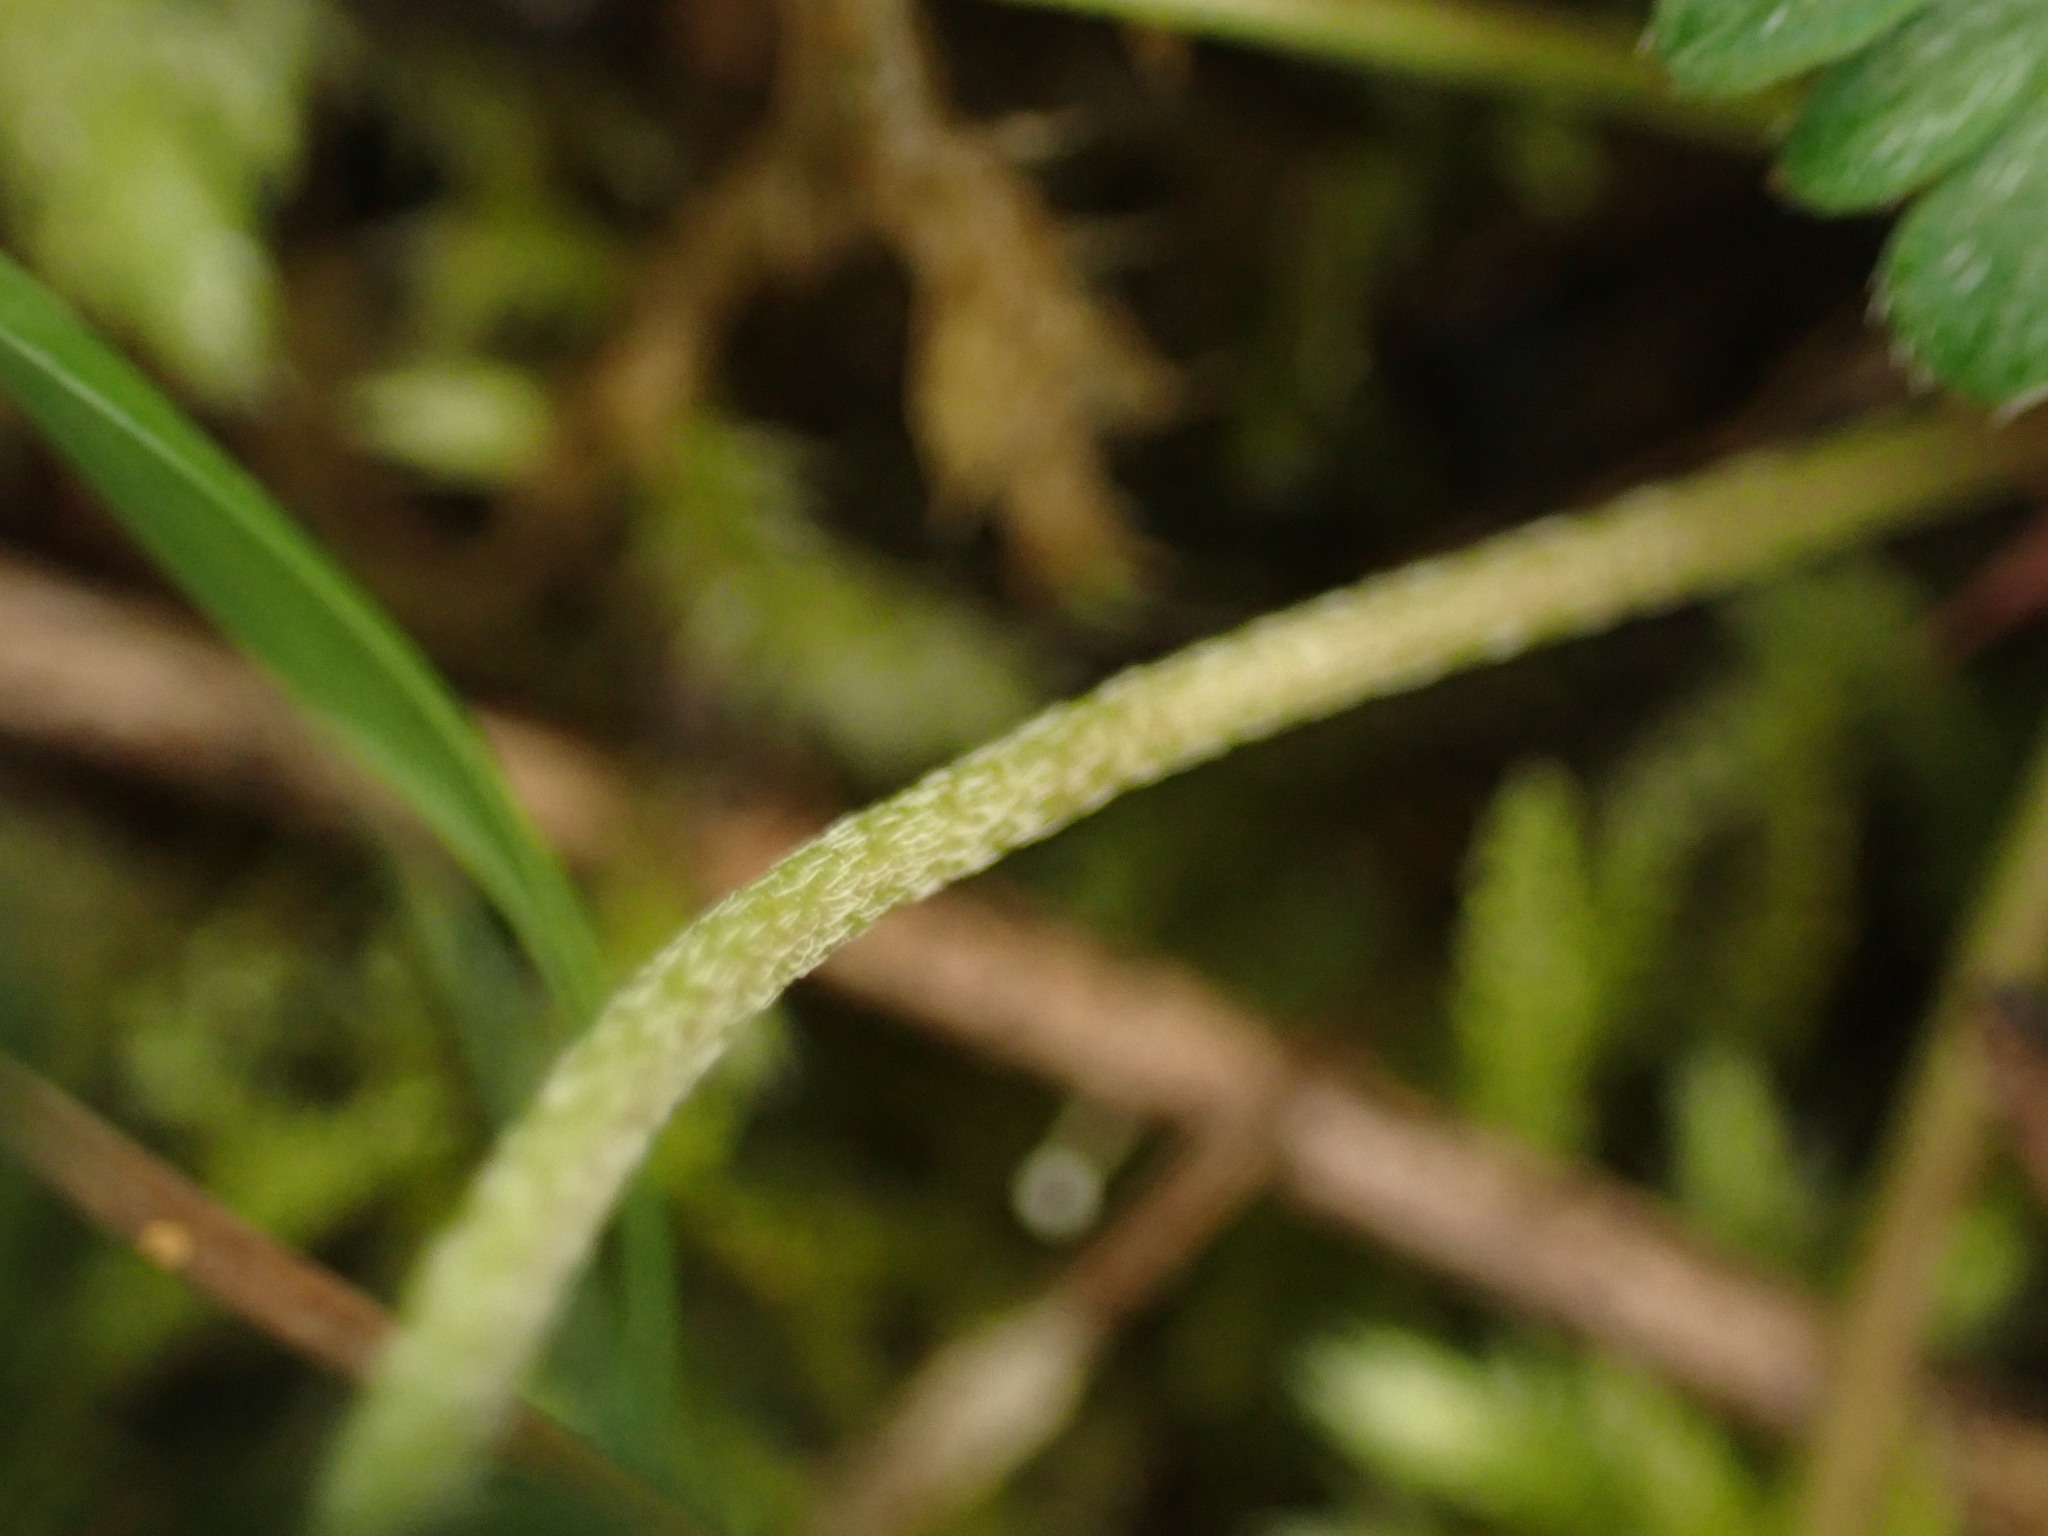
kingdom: Plantae
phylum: Tracheophyta
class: Magnoliopsida
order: Geraniales
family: Geraniaceae
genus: Geranium
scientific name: Geranium columbinum
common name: Long-stalked crane's-bill
